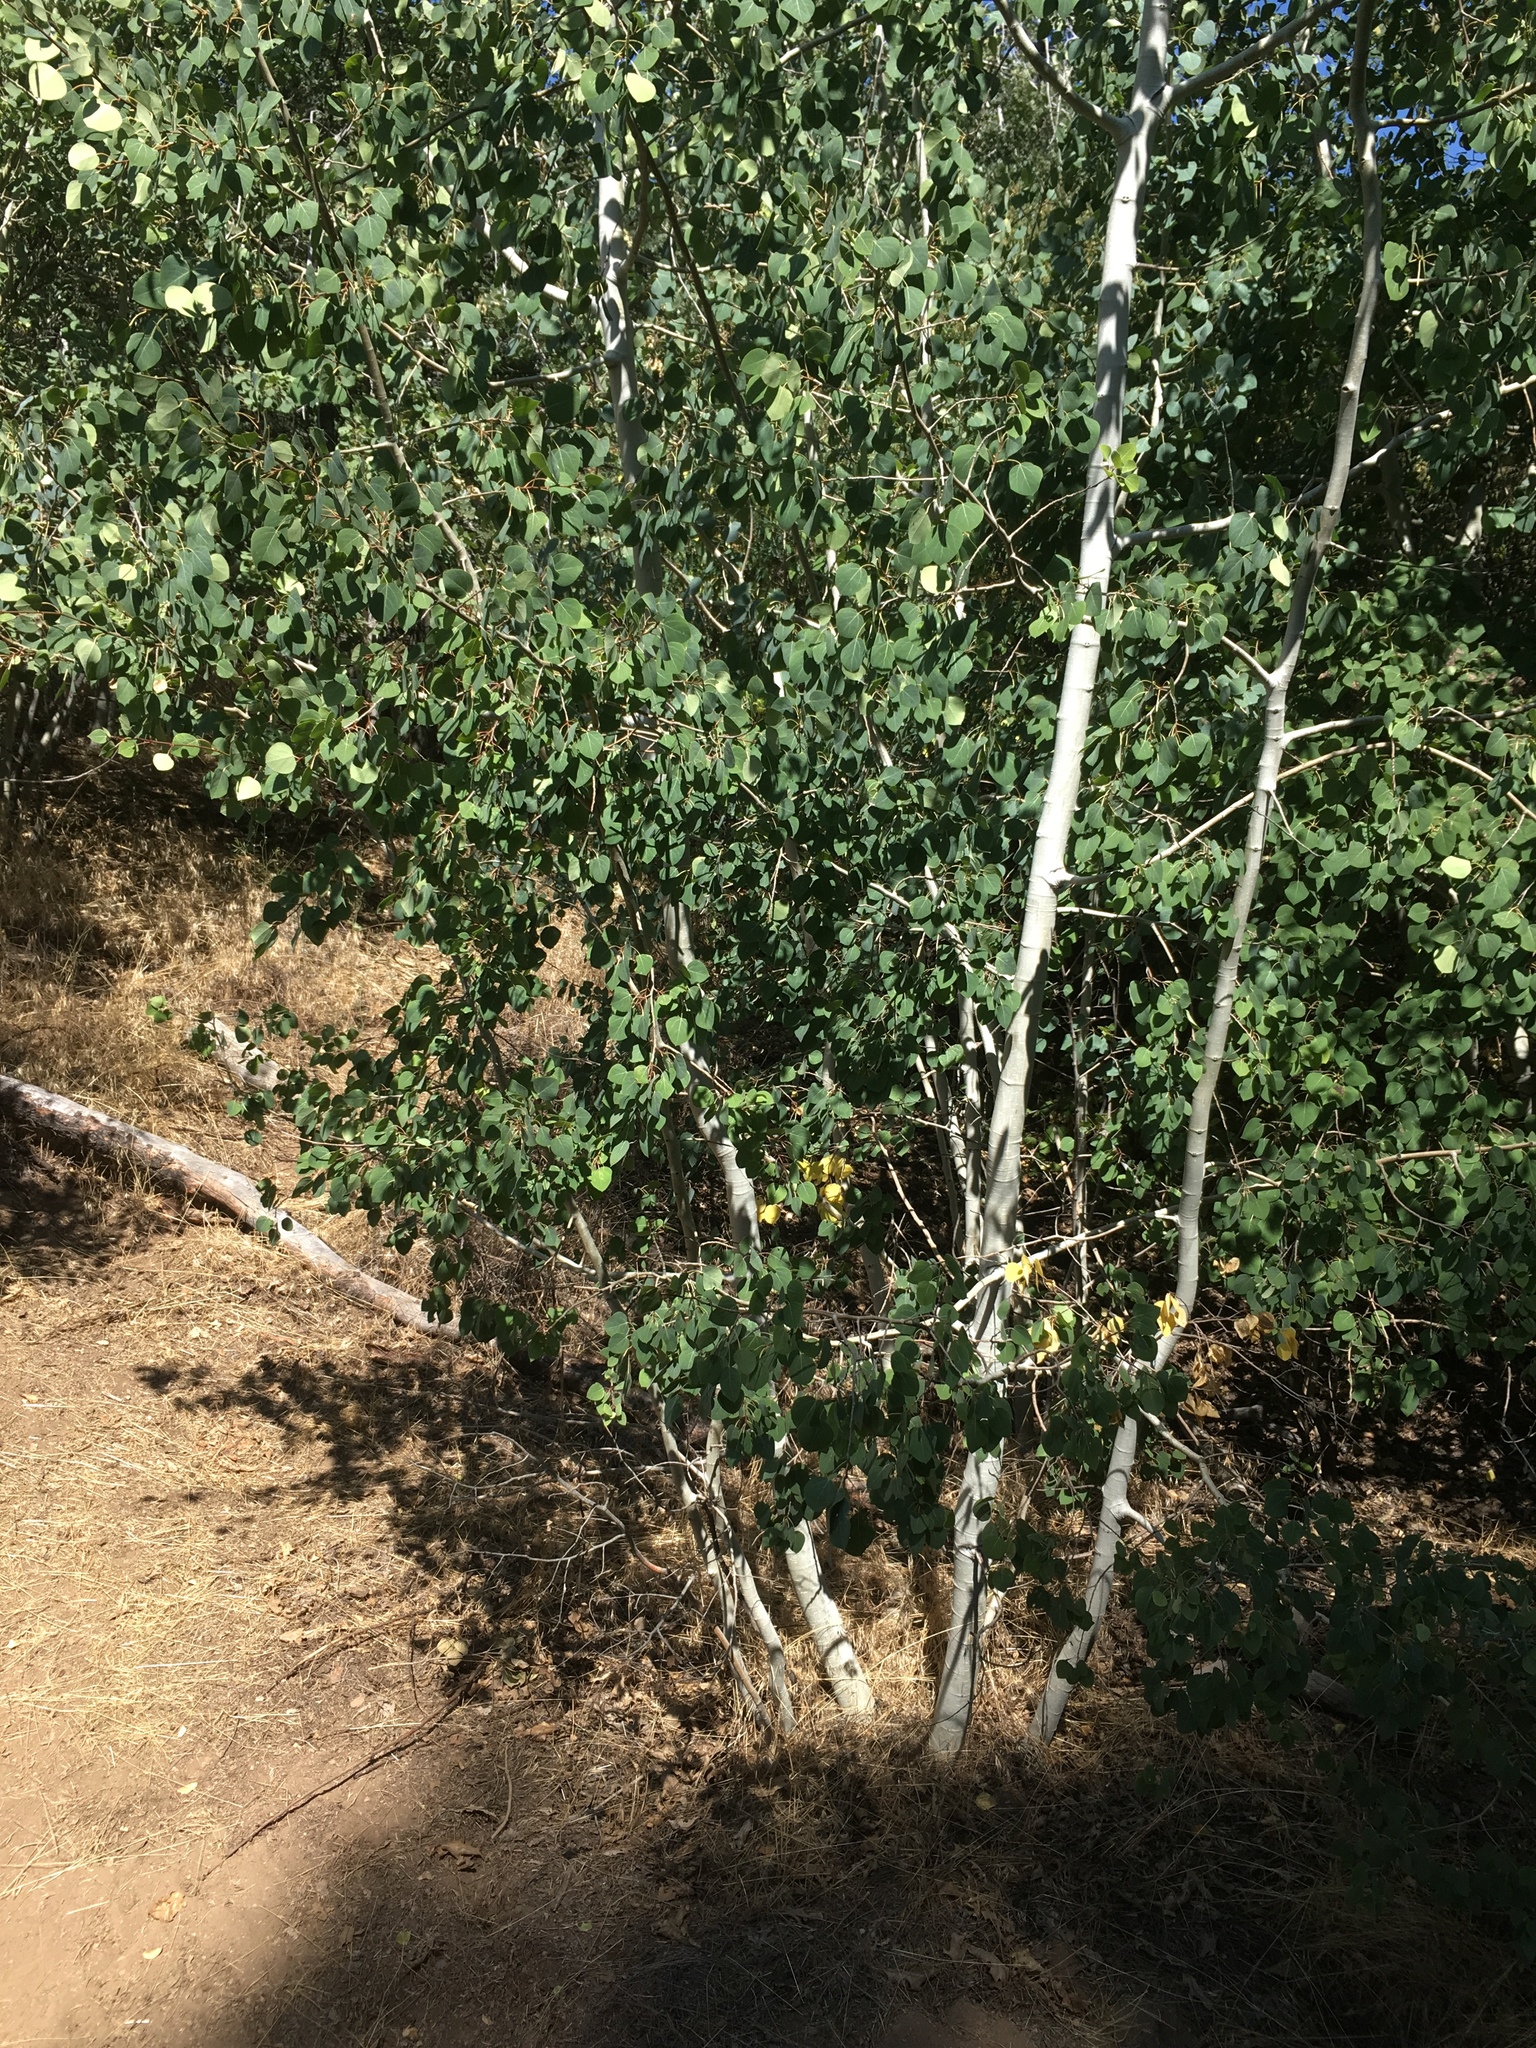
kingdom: Plantae
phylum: Tracheophyta
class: Magnoliopsida
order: Malpighiales
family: Salicaceae
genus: Populus
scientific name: Populus tremuloides
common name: Quaking aspen
